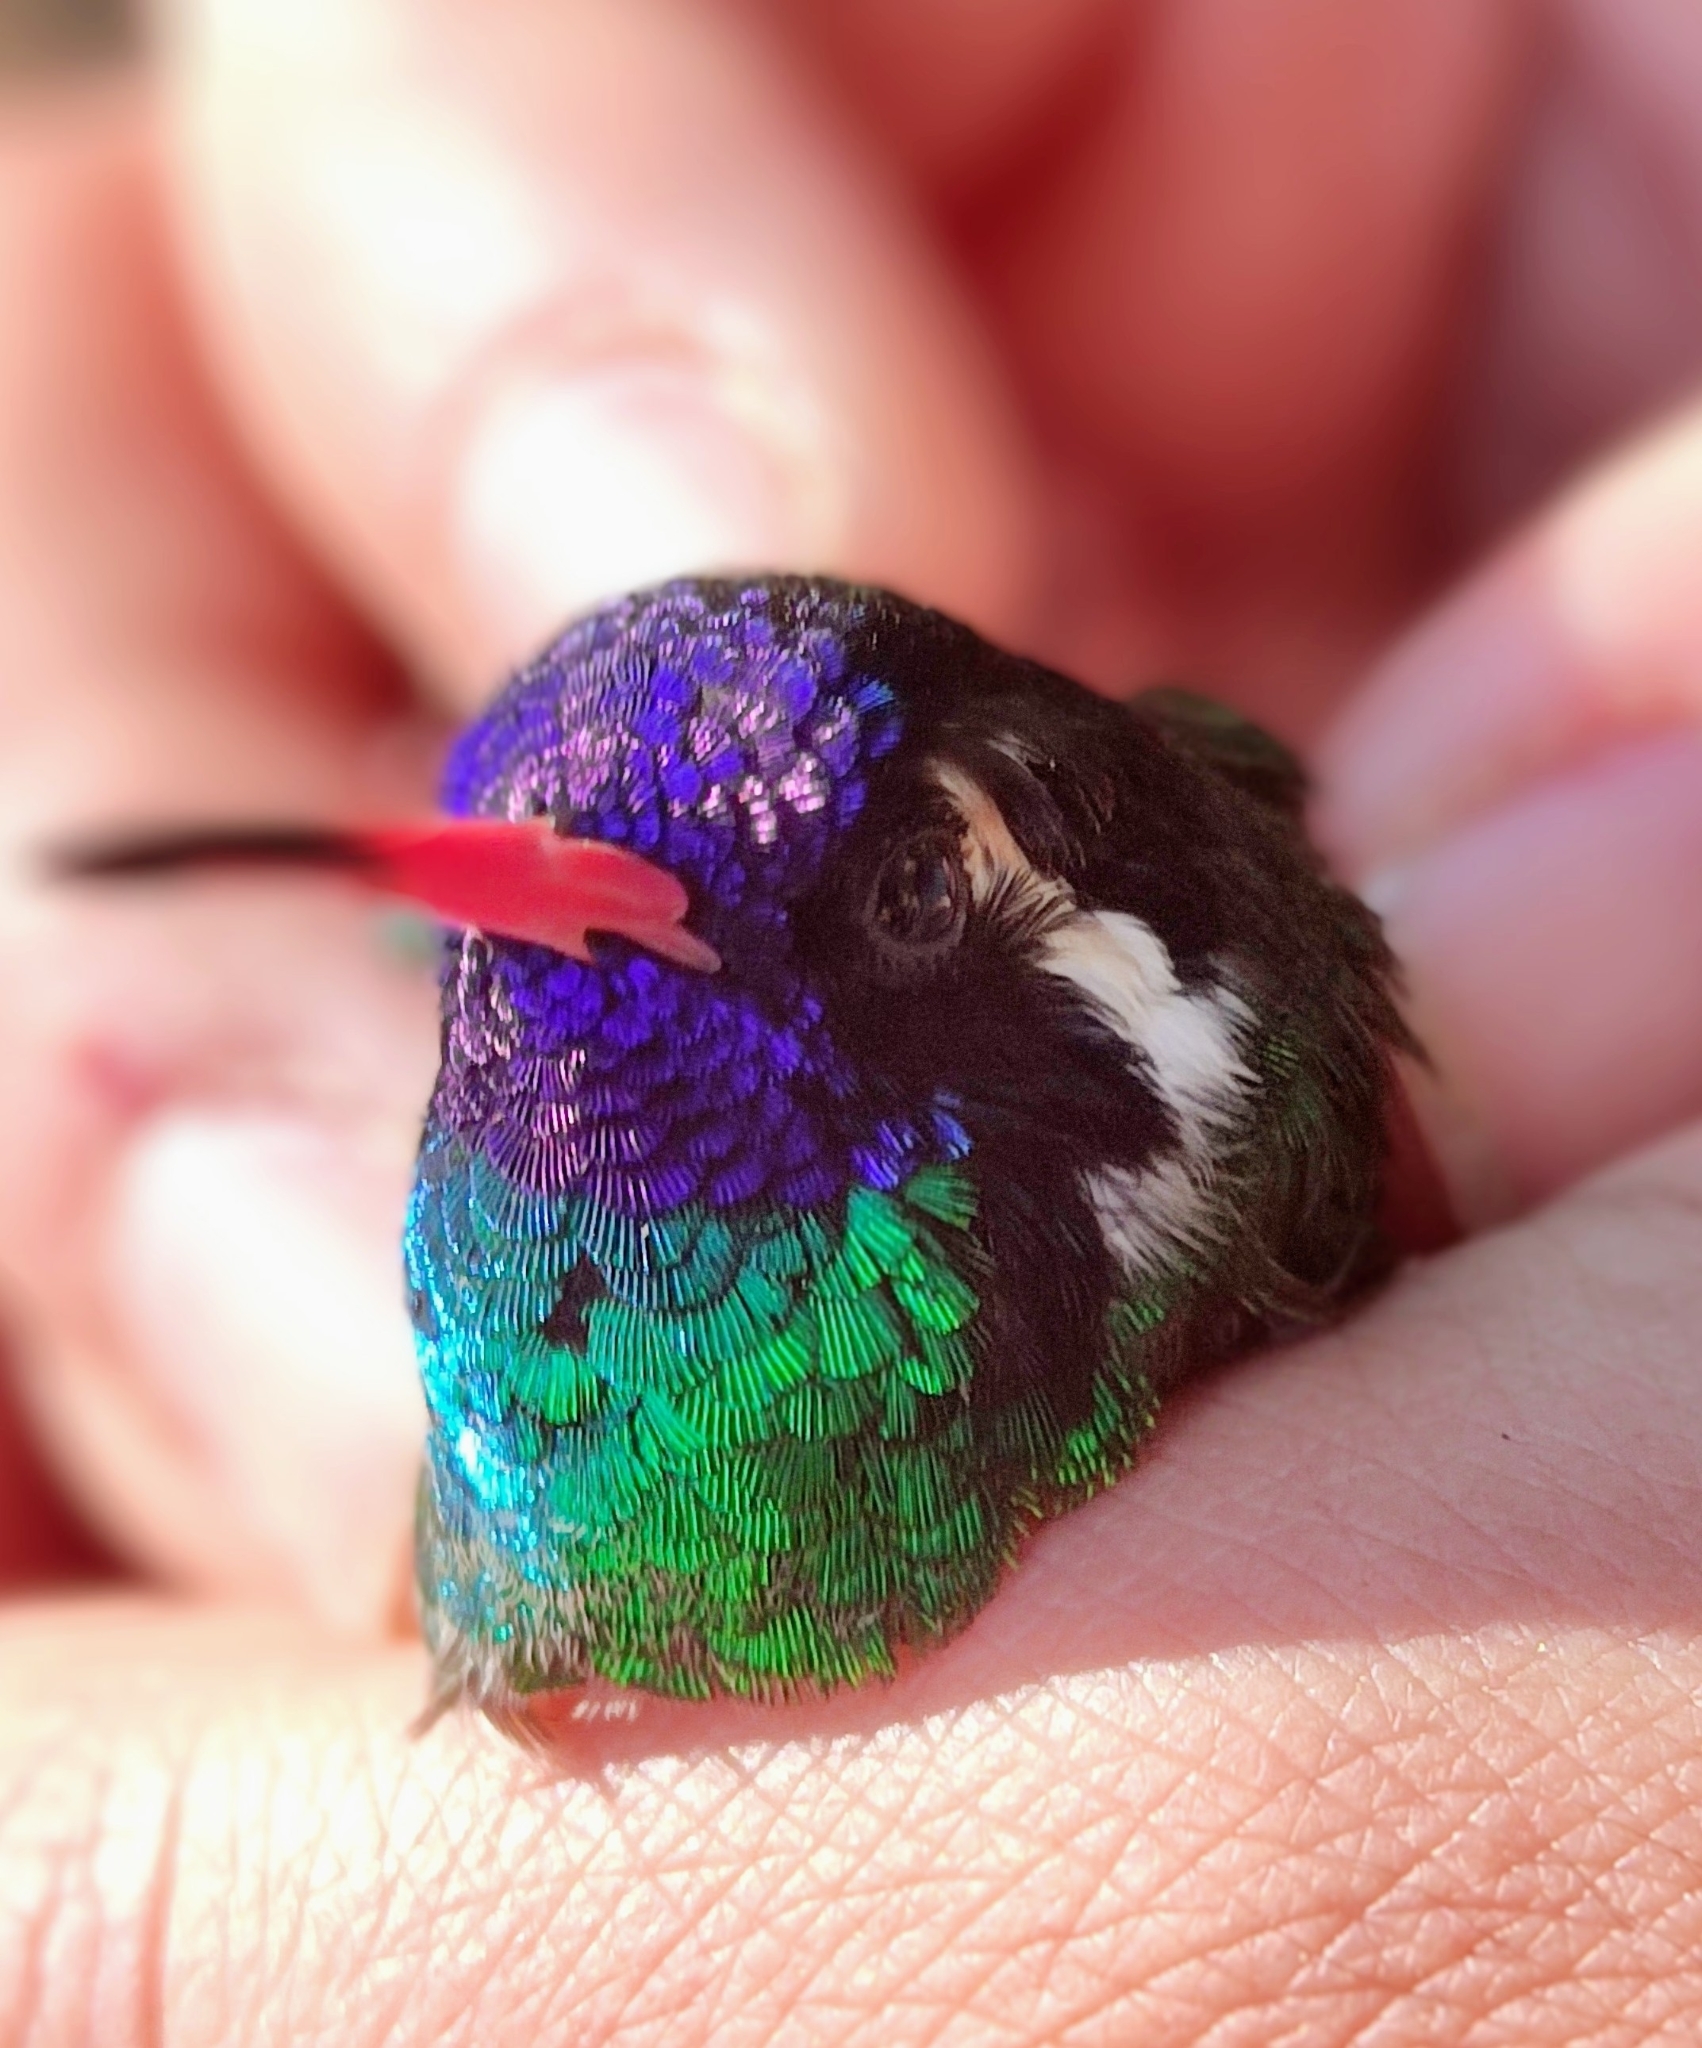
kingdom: Animalia
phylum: Chordata
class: Aves
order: Apodiformes
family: Trochilidae
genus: Basilinna
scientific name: Basilinna leucotis
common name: White-eared hummingbird
